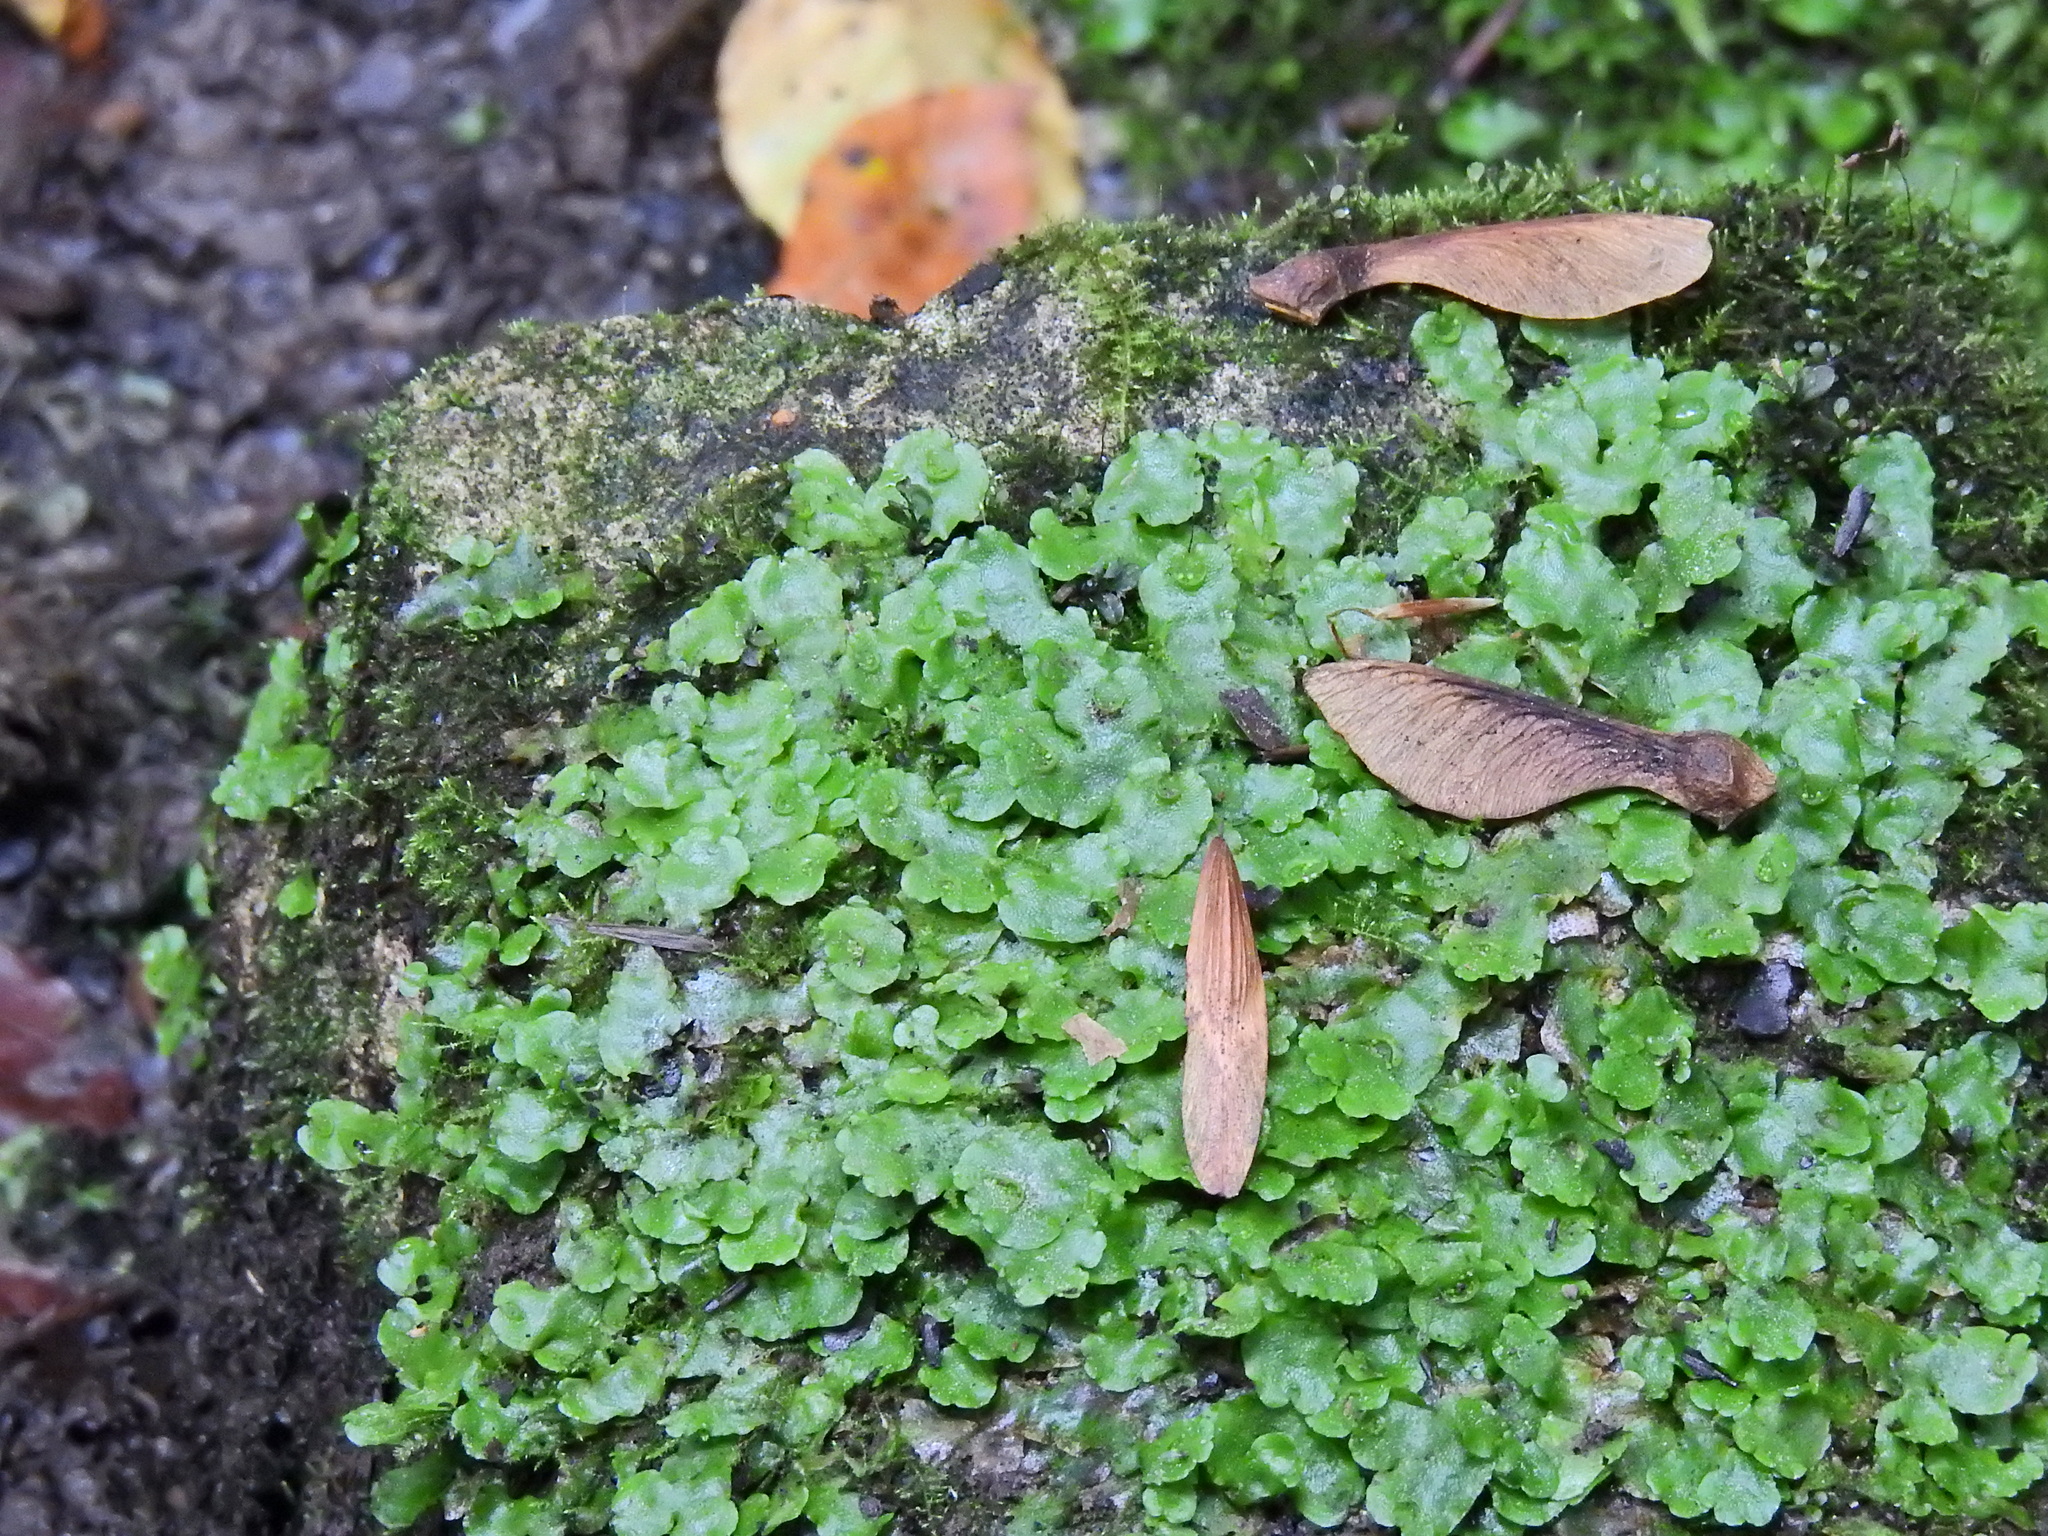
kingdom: Plantae
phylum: Marchantiophyta
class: Marchantiopsida
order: Lunulariales
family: Lunulariaceae
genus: Lunularia
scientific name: Lunularia cruciata
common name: Crescent-cup liverwort
